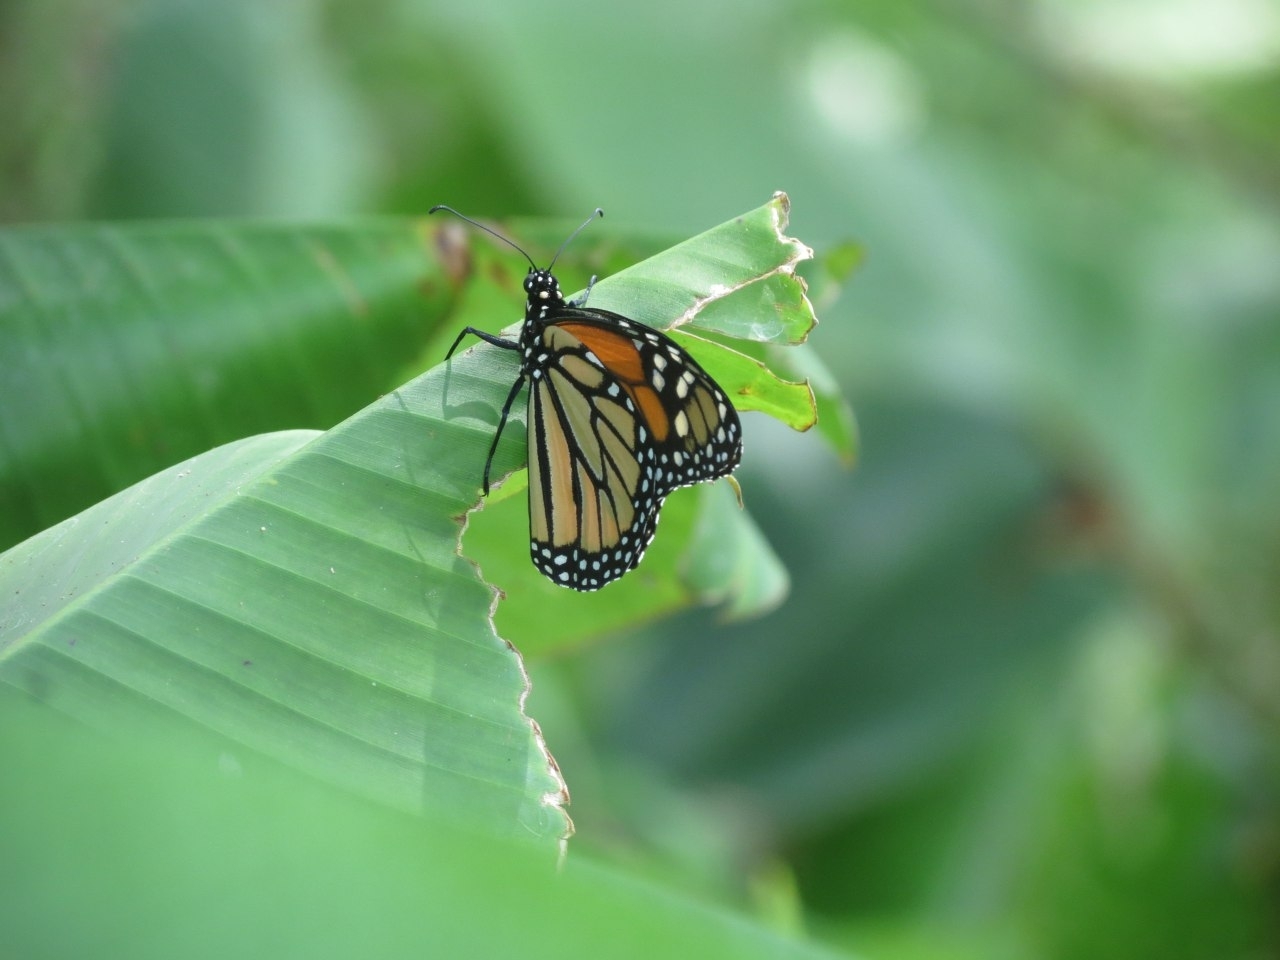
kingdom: Animalia
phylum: Arthropoda
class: Insecta
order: Lepidoptera
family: Nymphalidae
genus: Danaus
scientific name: Danaus plexippus
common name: Monarch
